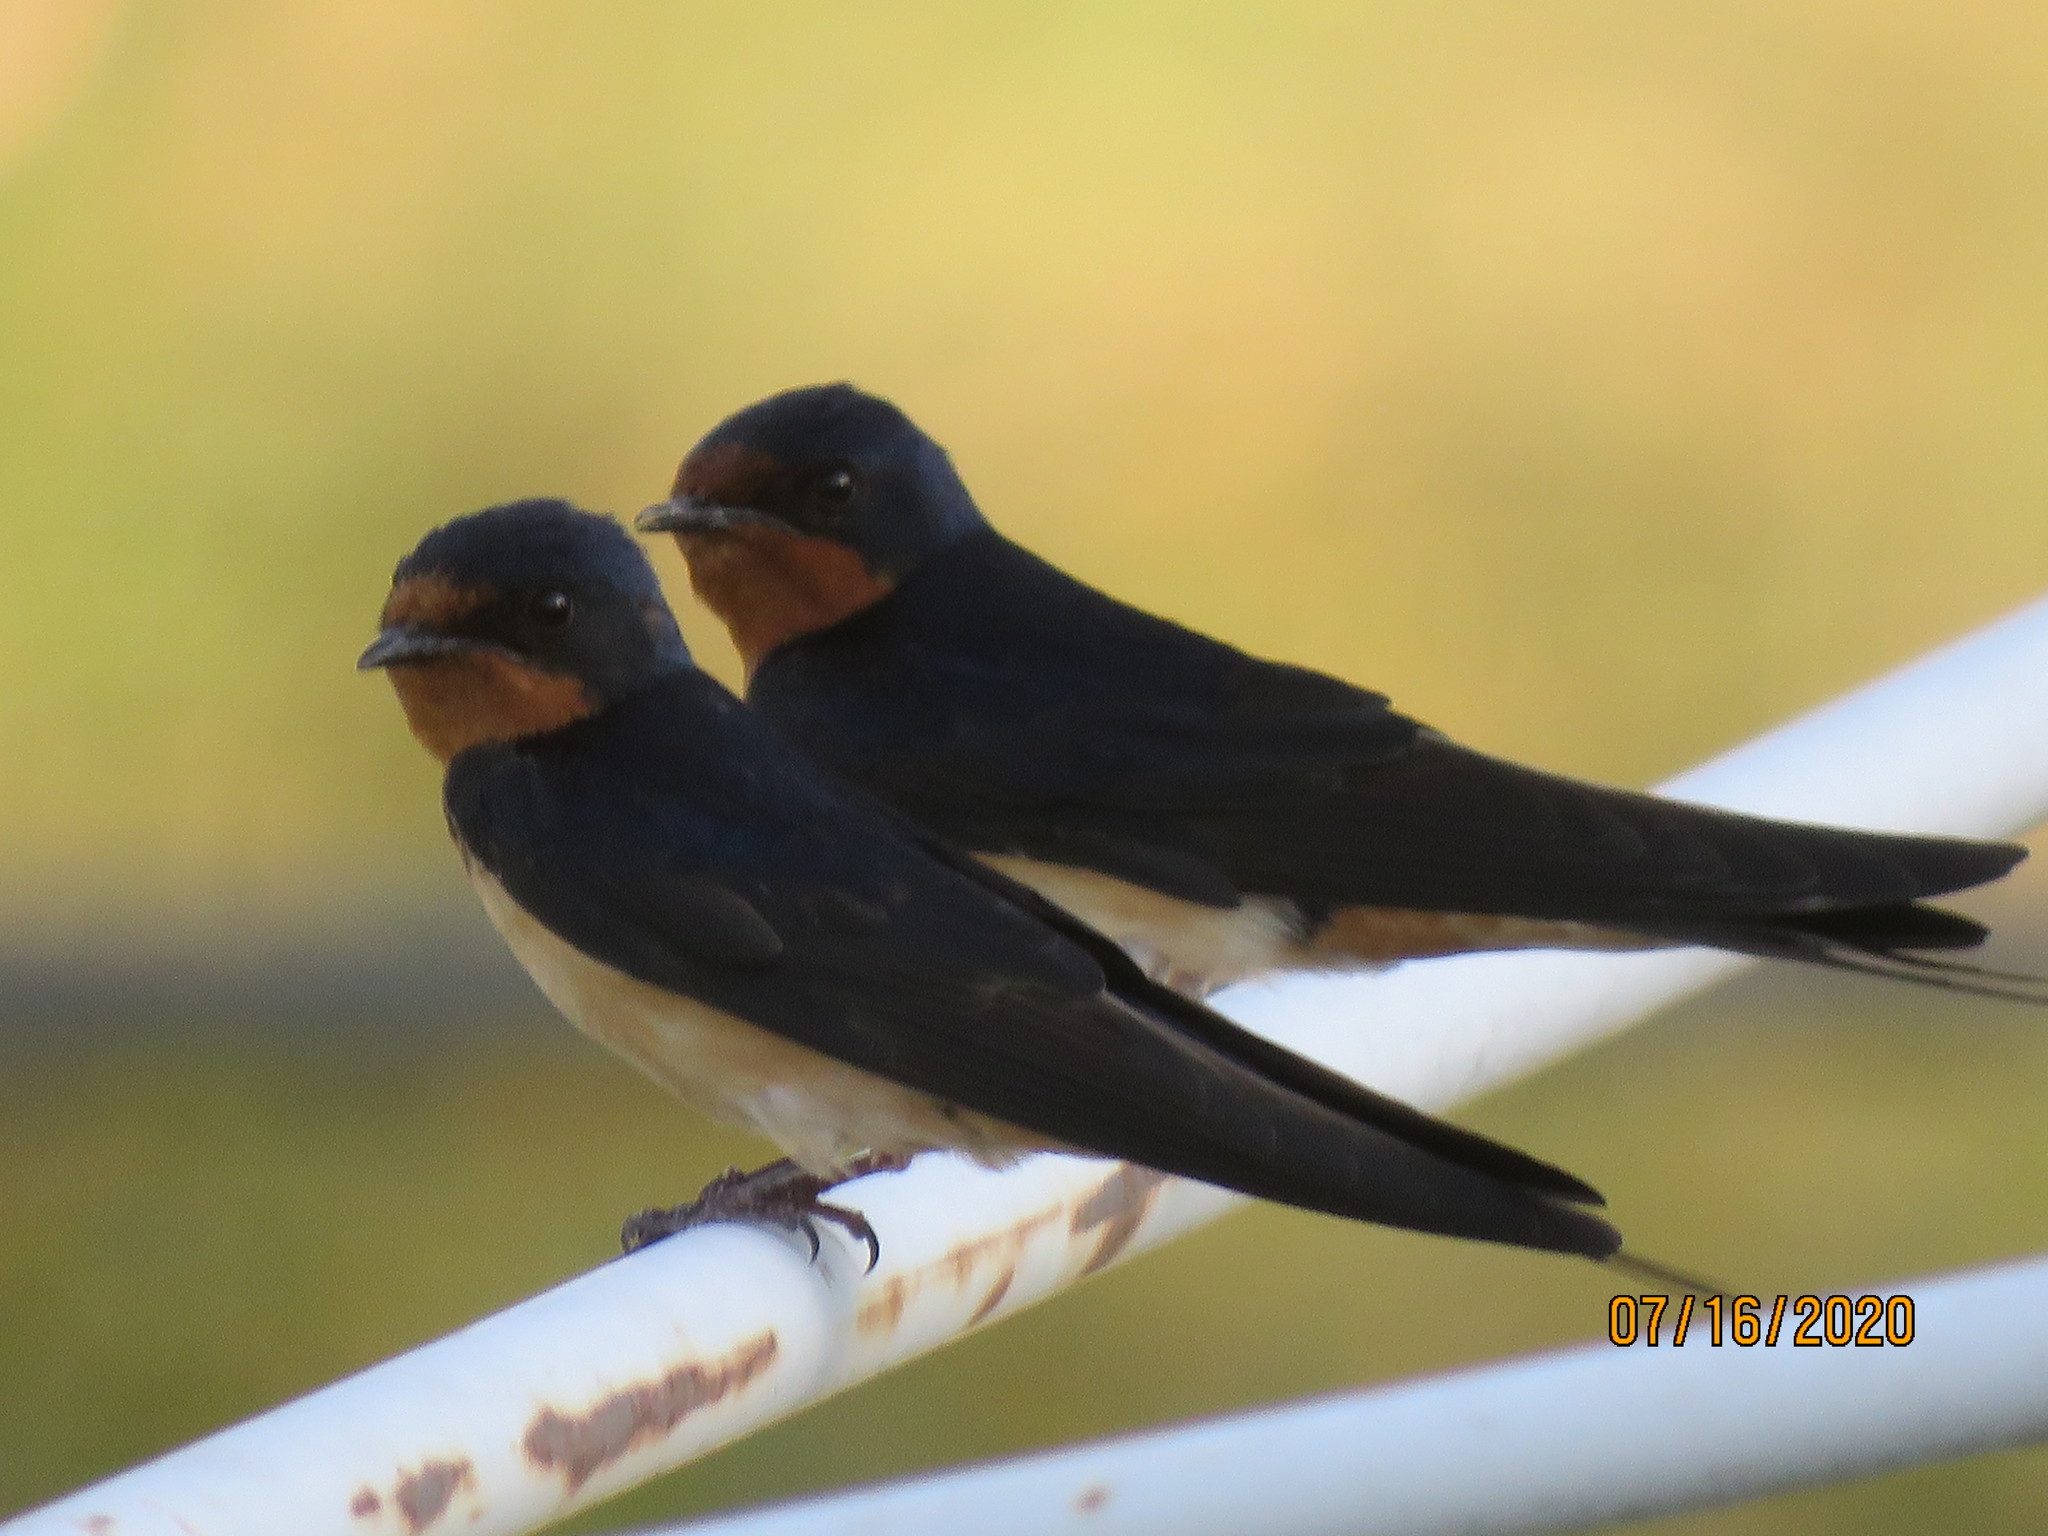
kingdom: Animalia
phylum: Chordata
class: Aves
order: Passeriformes
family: Hirundinidae
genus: Hirundo
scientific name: Hirundo rustica
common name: Barn swallow
